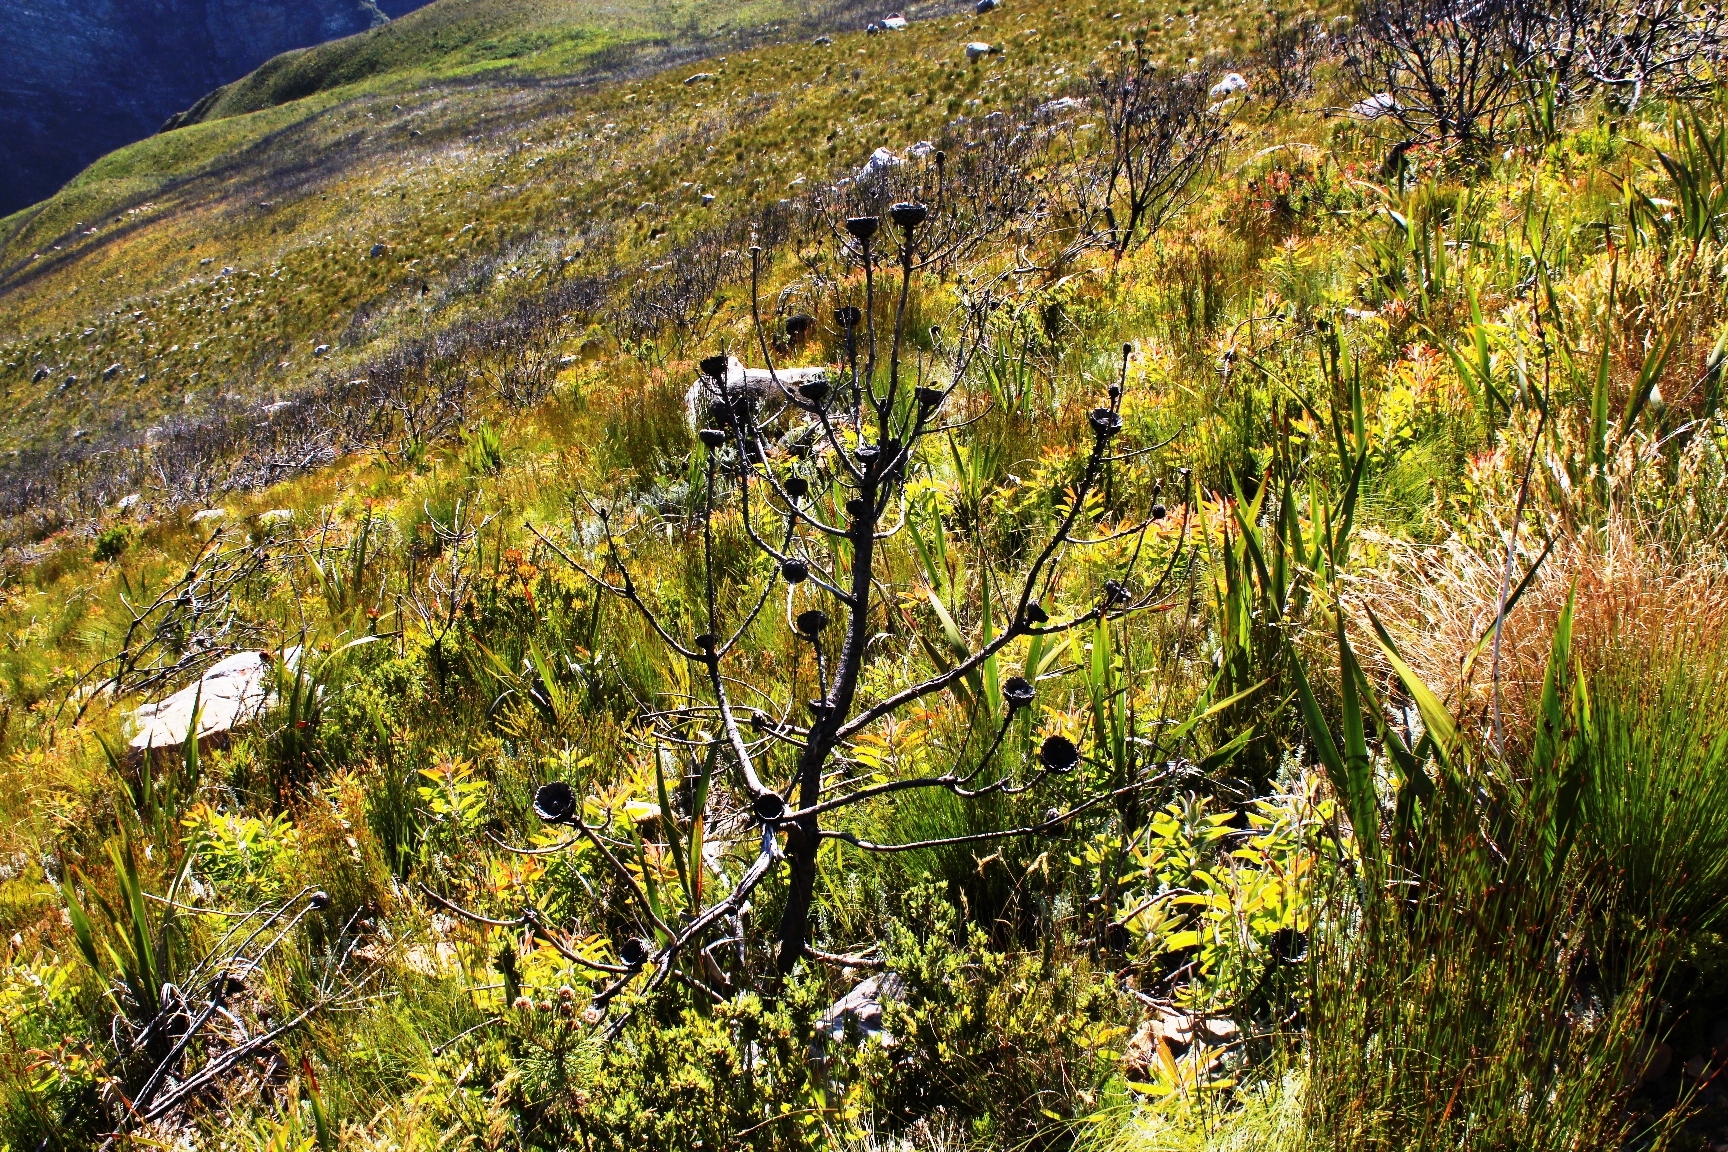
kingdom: Plantae
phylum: Tracheophyta
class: Magnoliopsida
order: Proteales
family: Proteaceae
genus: Protea
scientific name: Protea neriifolia
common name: Blue sugarbush
